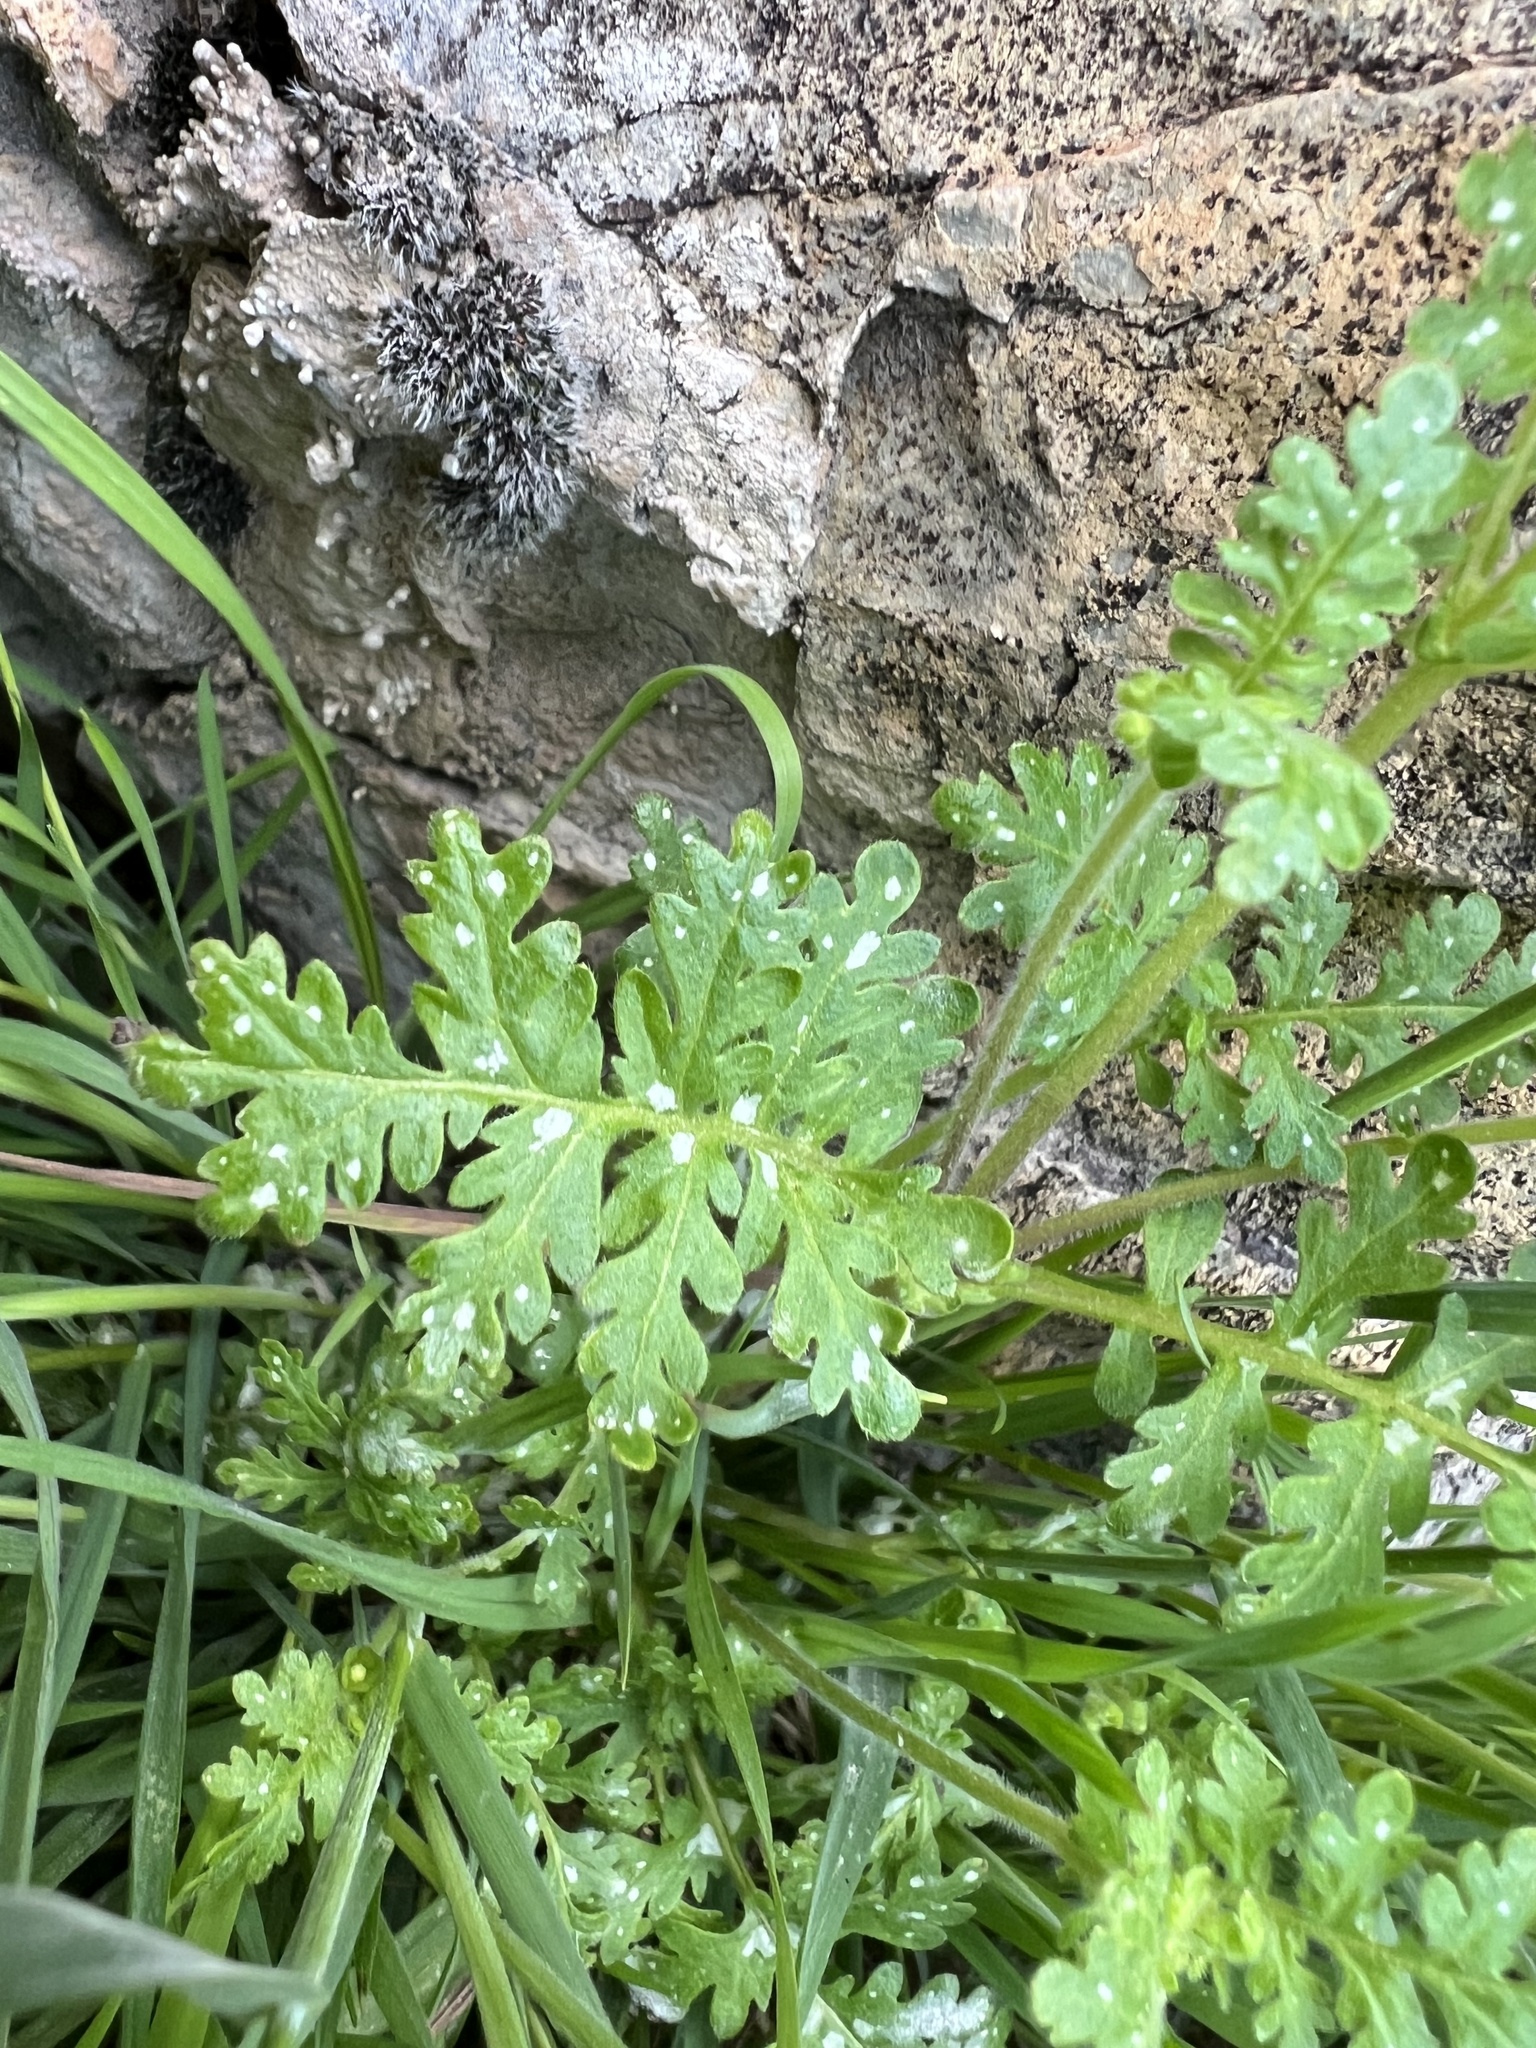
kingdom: Plantae
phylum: Tracheophyta
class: Magnoliopsida
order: Boraginales
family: Hydrophyllaceae
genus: Eucrypta
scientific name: Eucrypta chrysanthemifolia
